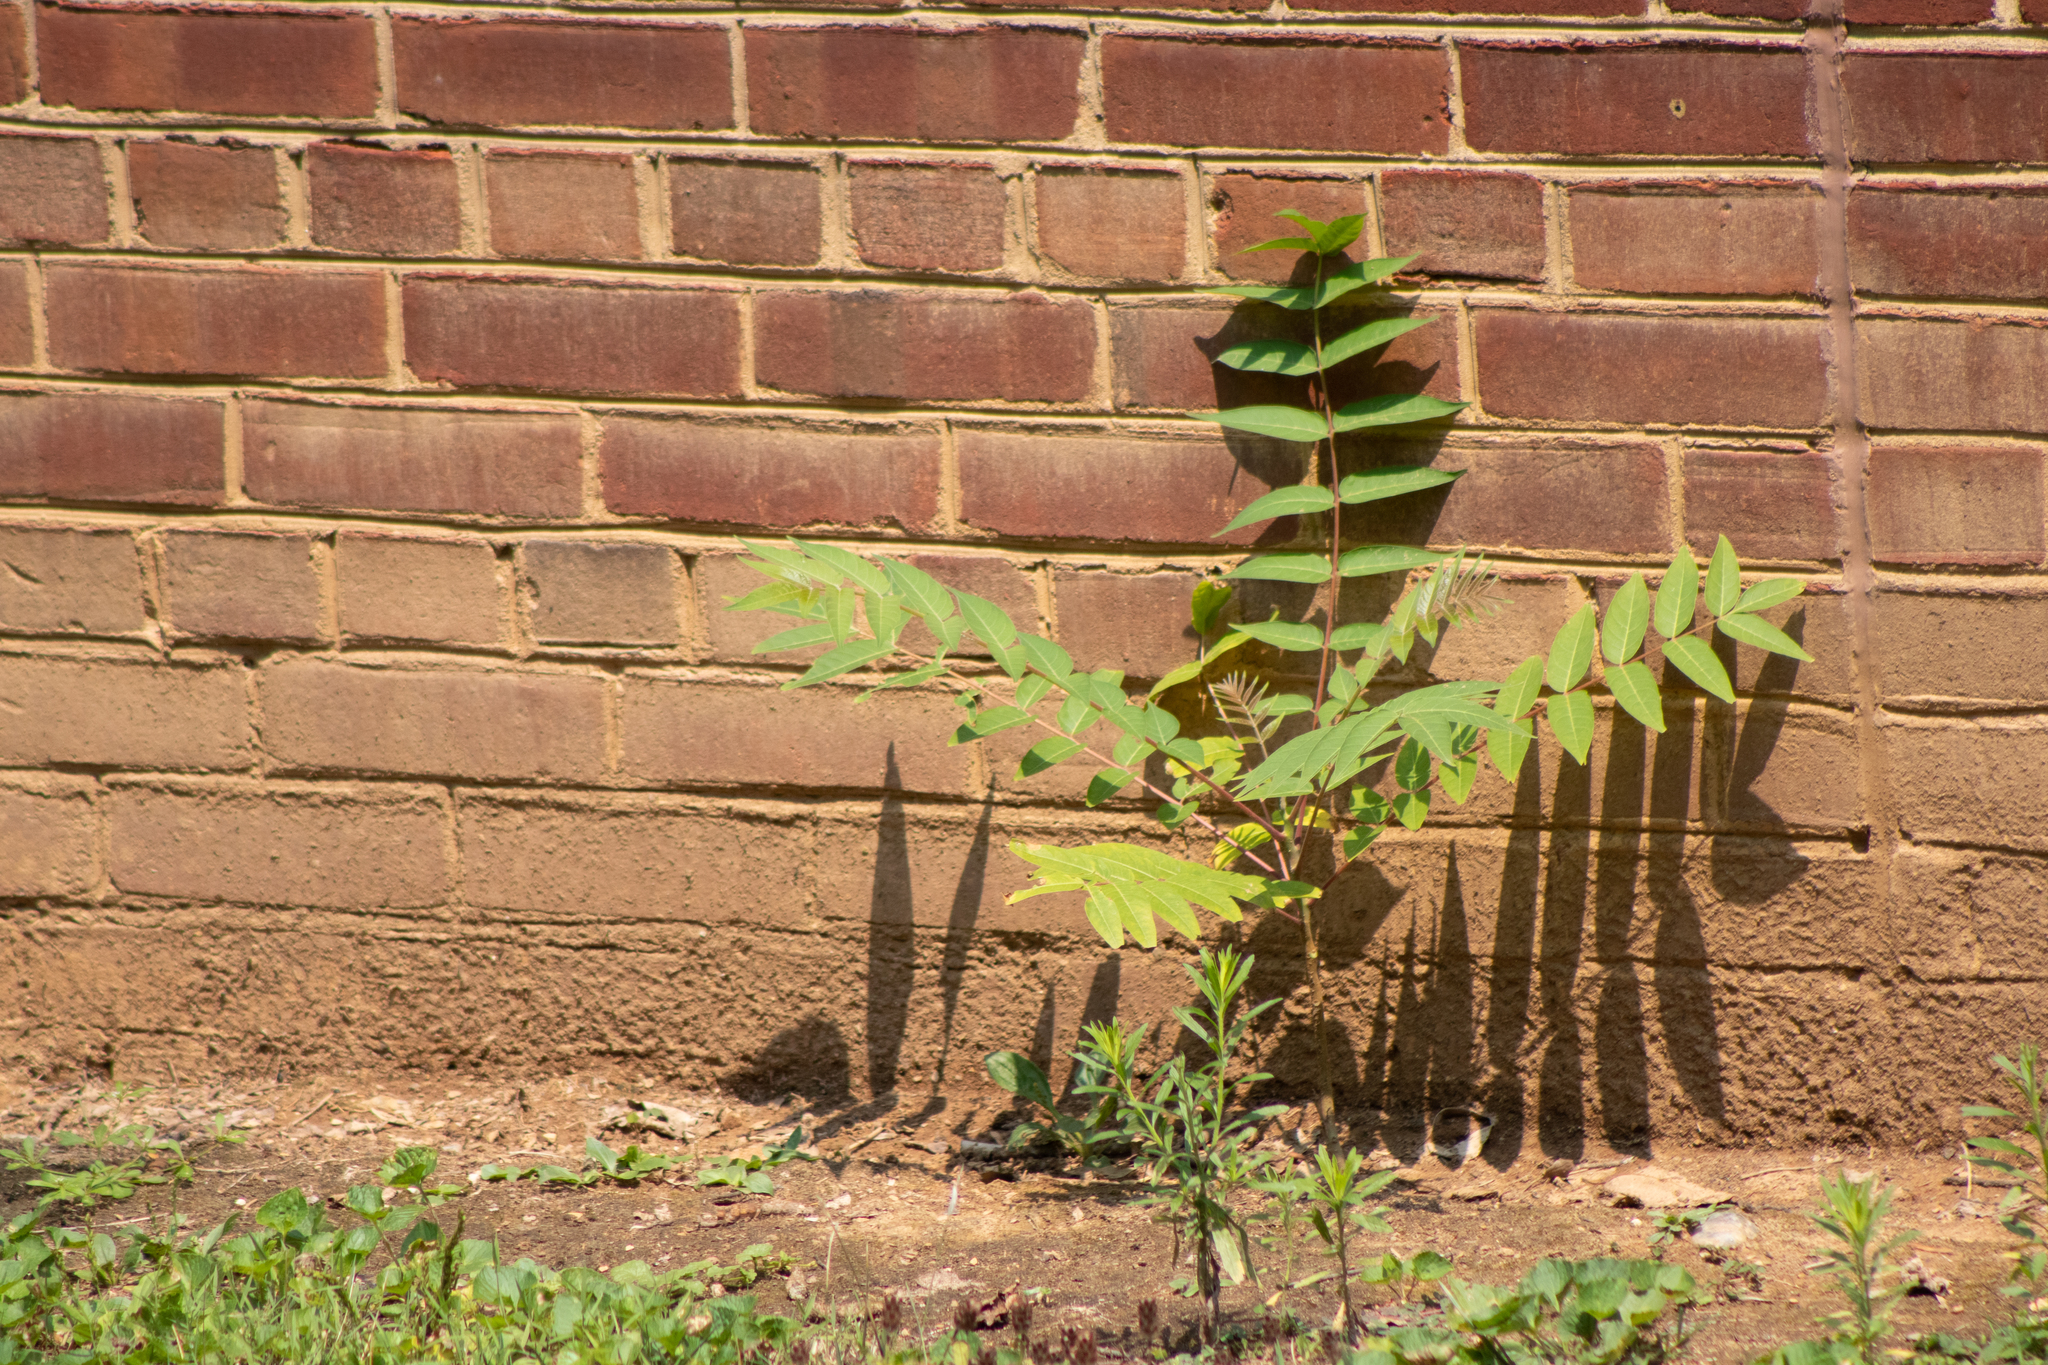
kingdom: Plantae
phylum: Tracheophyta
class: Magnoliopsida
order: Sapindales
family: Simaroubaceae
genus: Ailanthus
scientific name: Ailanthus altissima
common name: Tree-of-heaven
